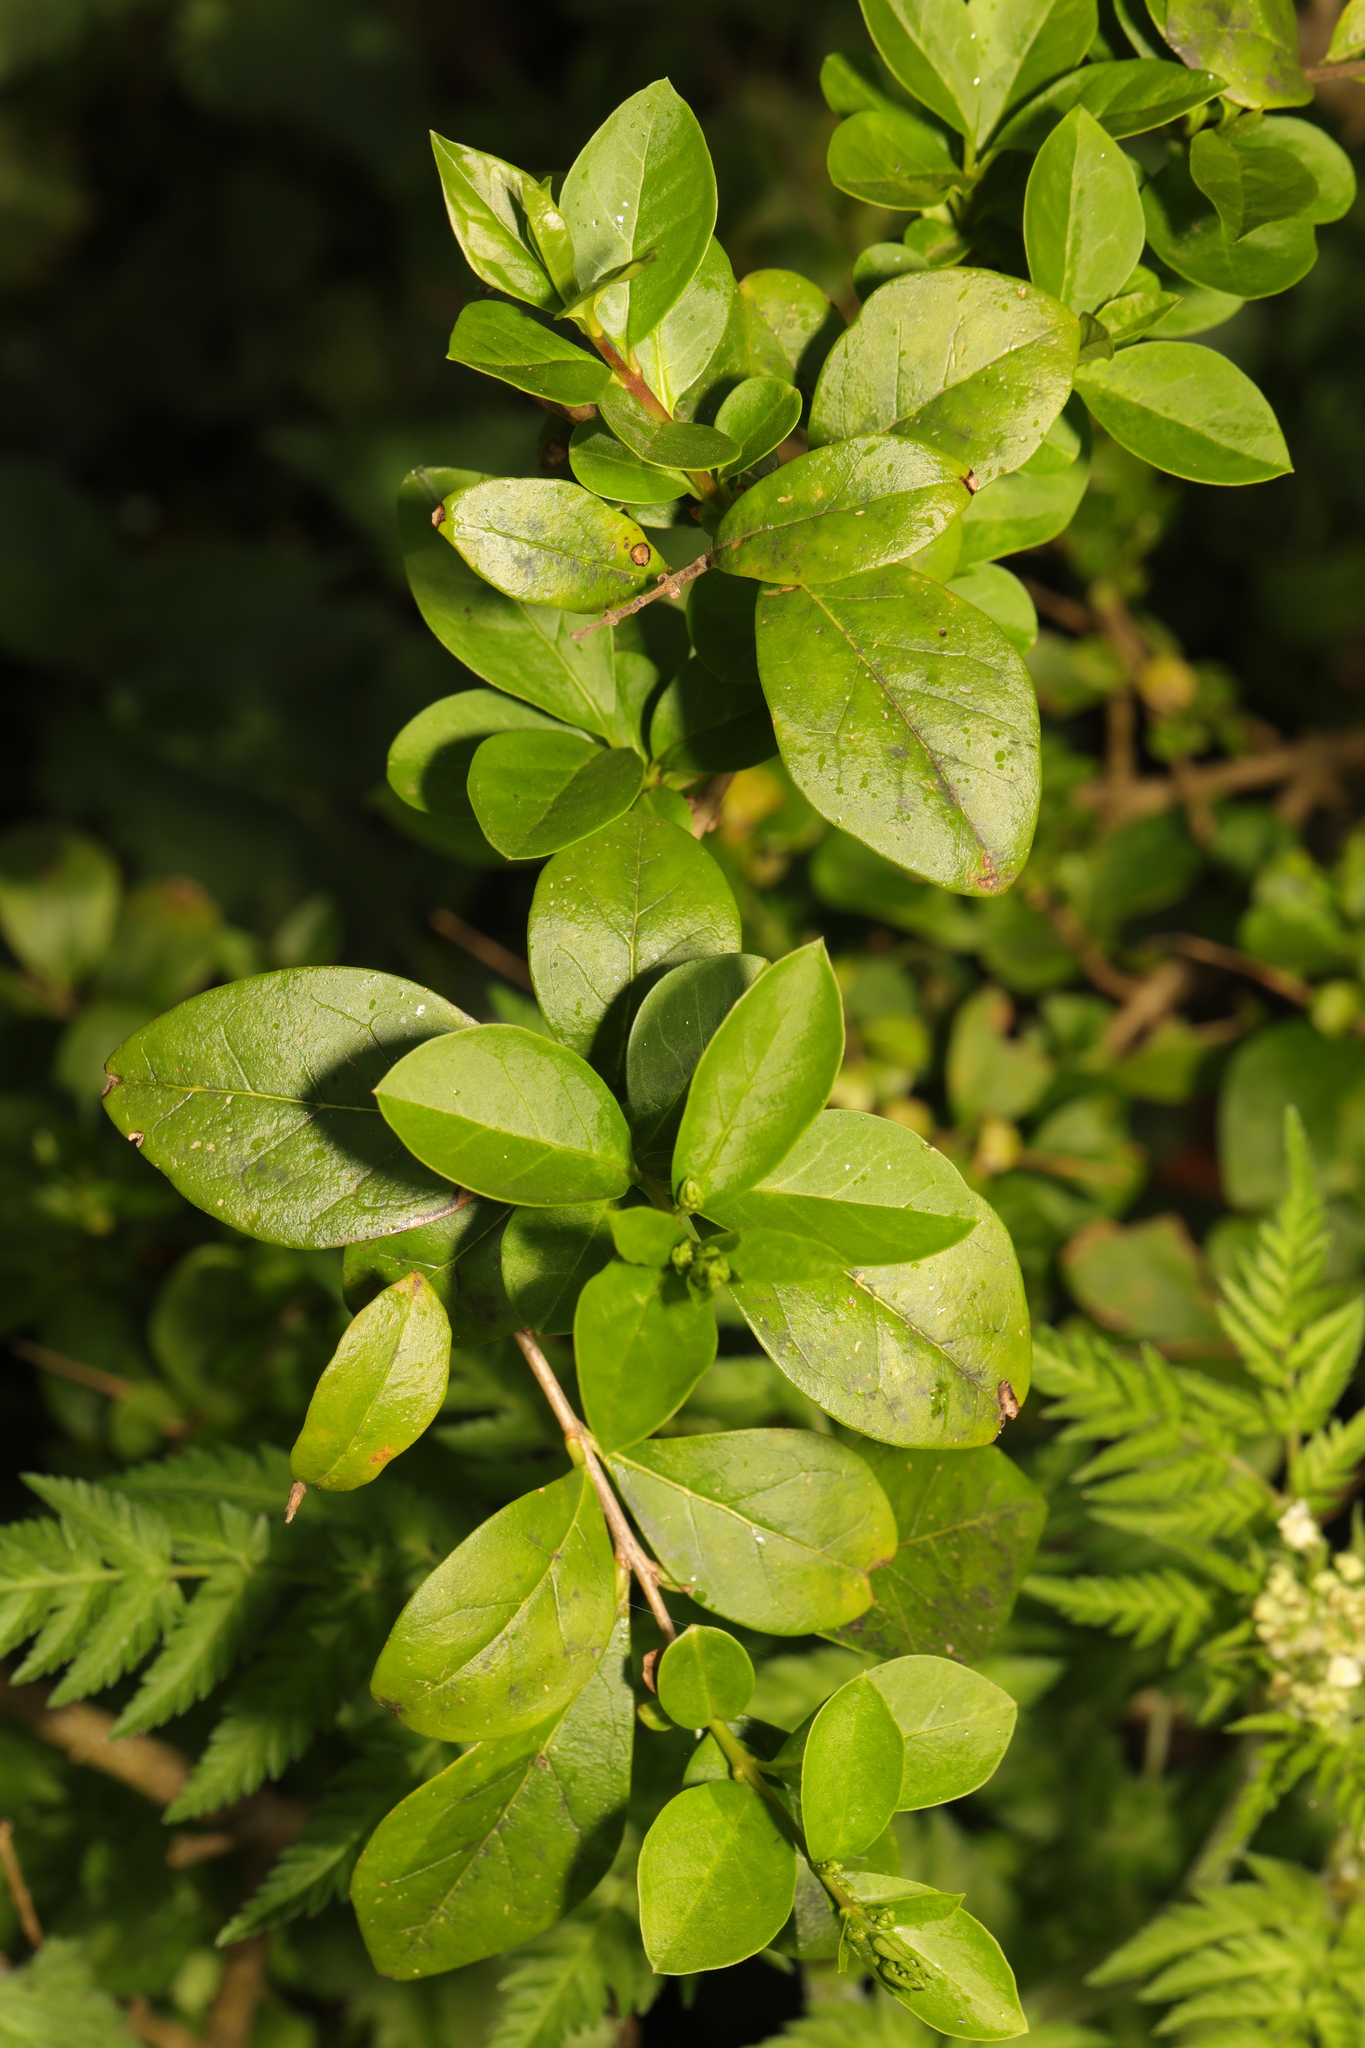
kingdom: Plantae
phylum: Tracheophyta
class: Magnoliopsida
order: Lamiales
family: Oleaceae
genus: Ligustrum
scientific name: Ligustrum ovalifolium
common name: California privet
